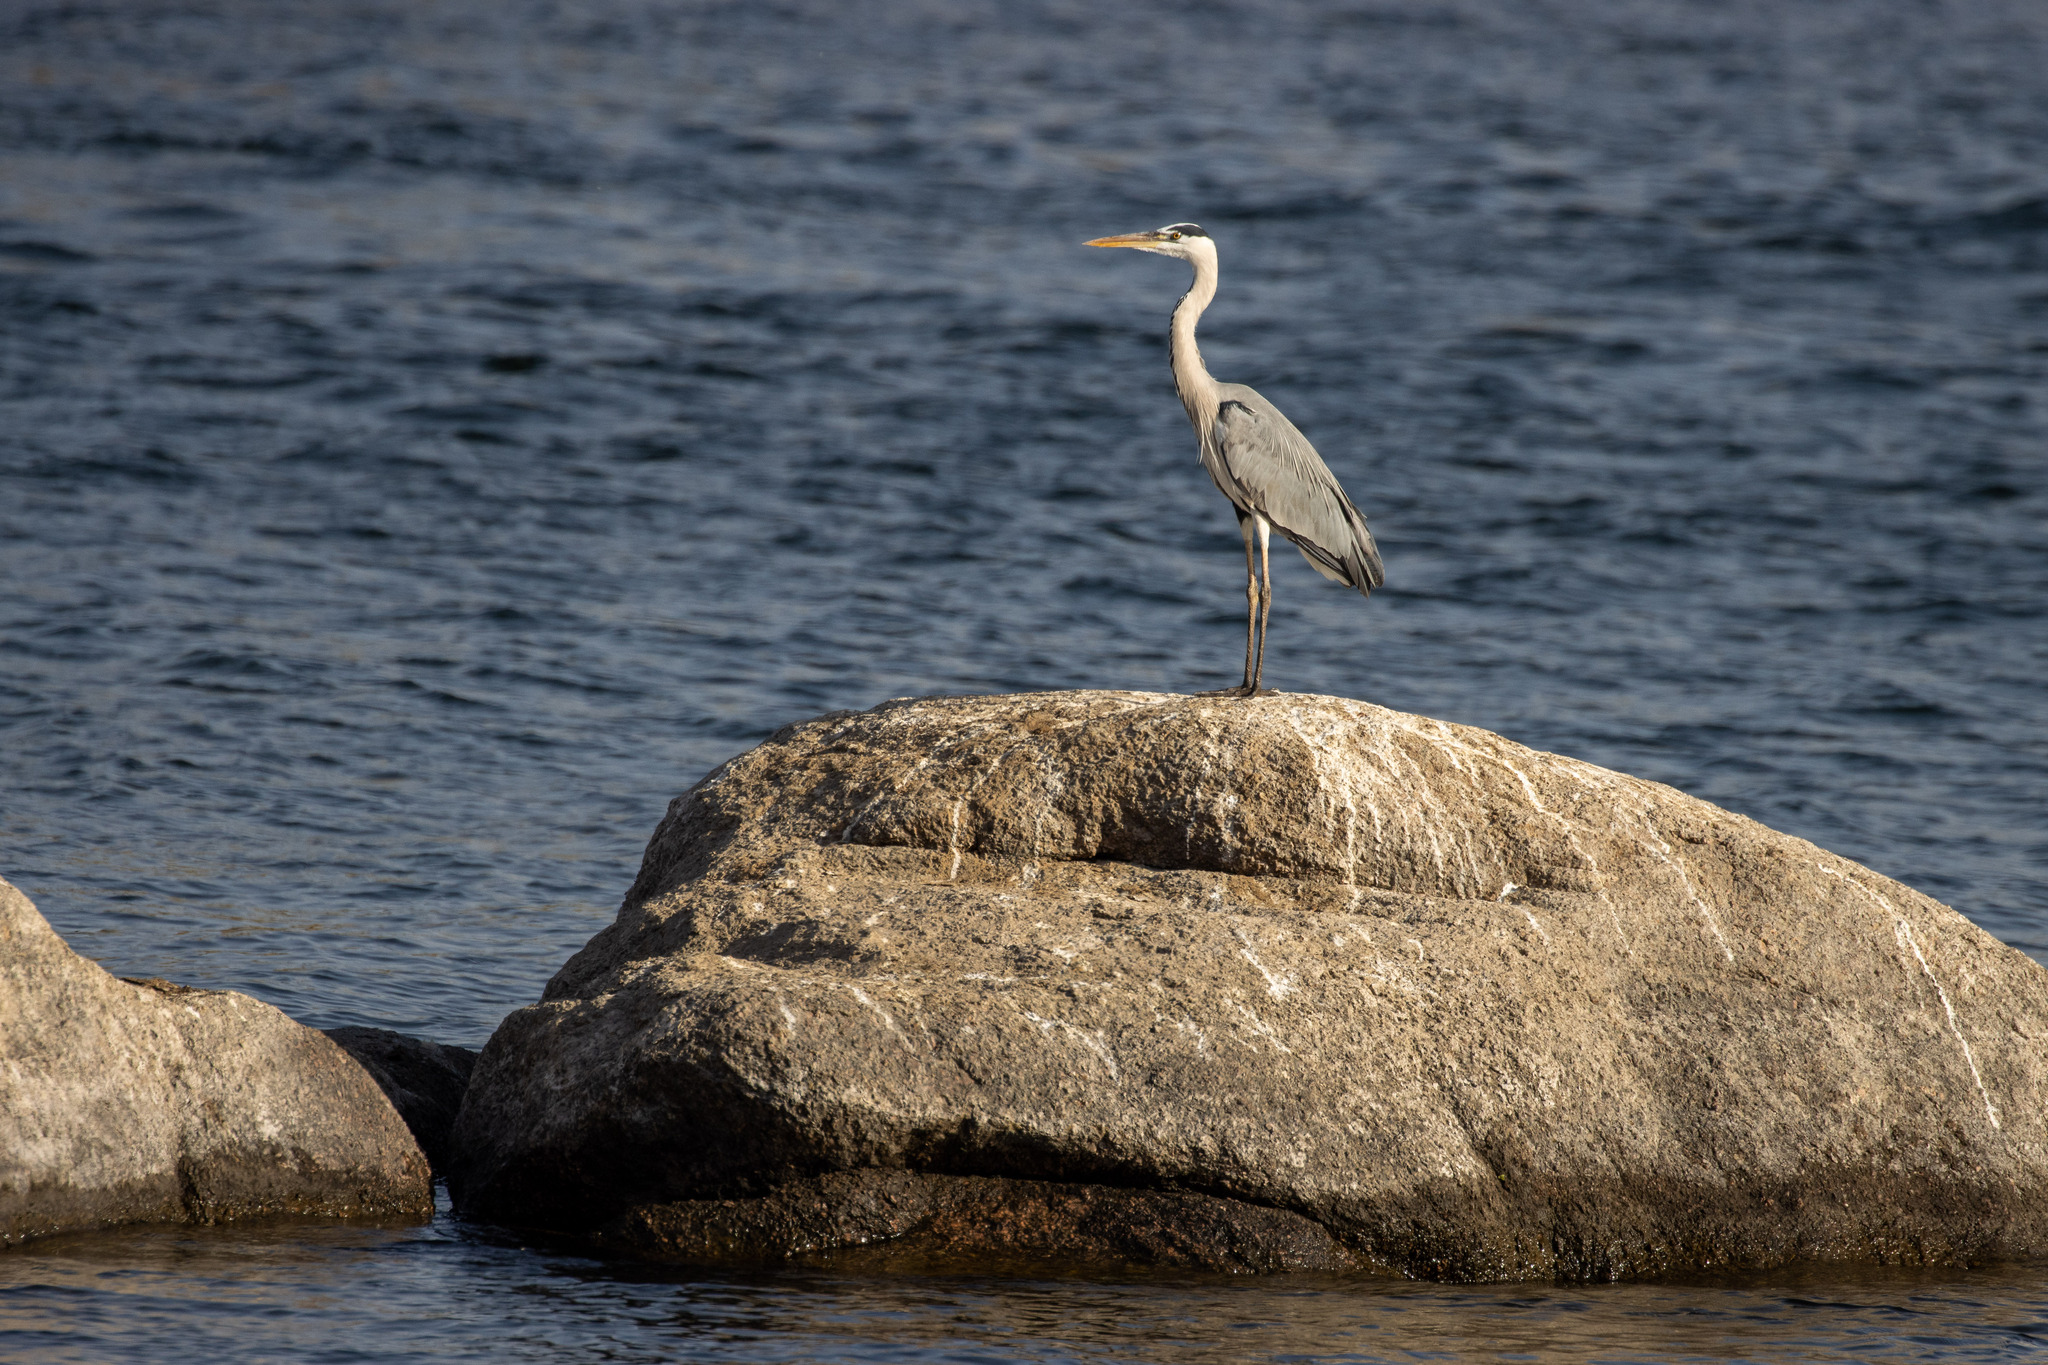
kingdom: Animalia
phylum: Chordata
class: Aves
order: Pelecaniformes
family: Ardeidae
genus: Ardea
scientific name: Ardea cinerea
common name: Grey heron
